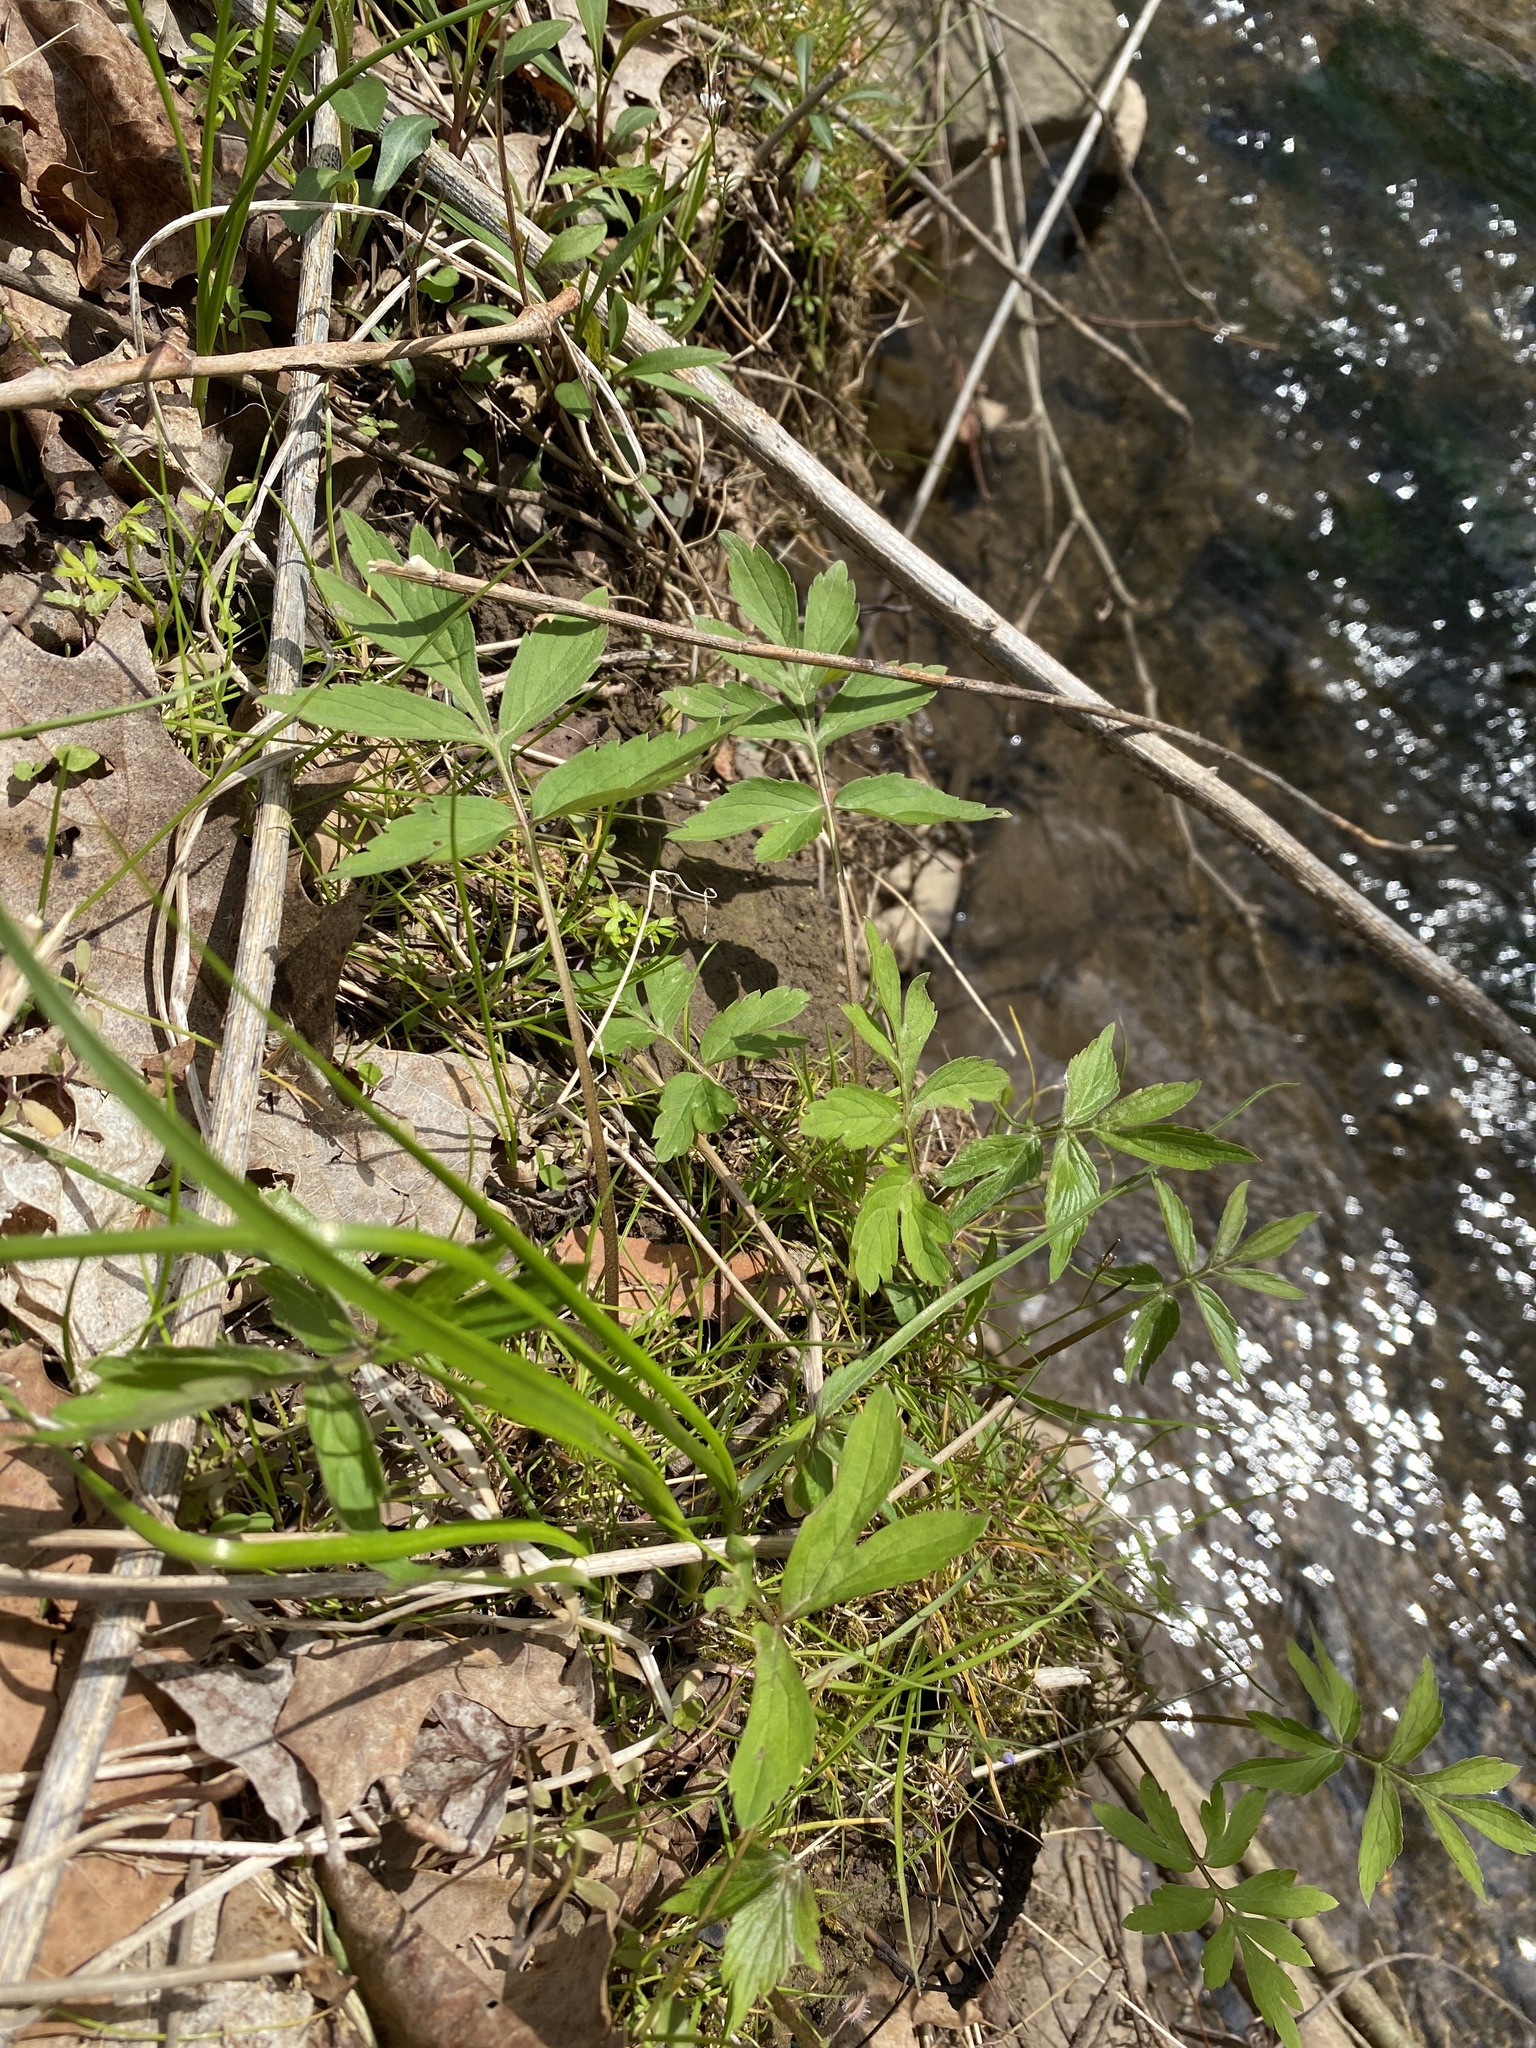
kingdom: Plantae
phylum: Tracheophyta
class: Magnoliopsida
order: Boraginales
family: Hydrophyllaceae
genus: Hydrophyllum
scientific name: Hydrophyllum virginianum
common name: Virginia waterleaf
